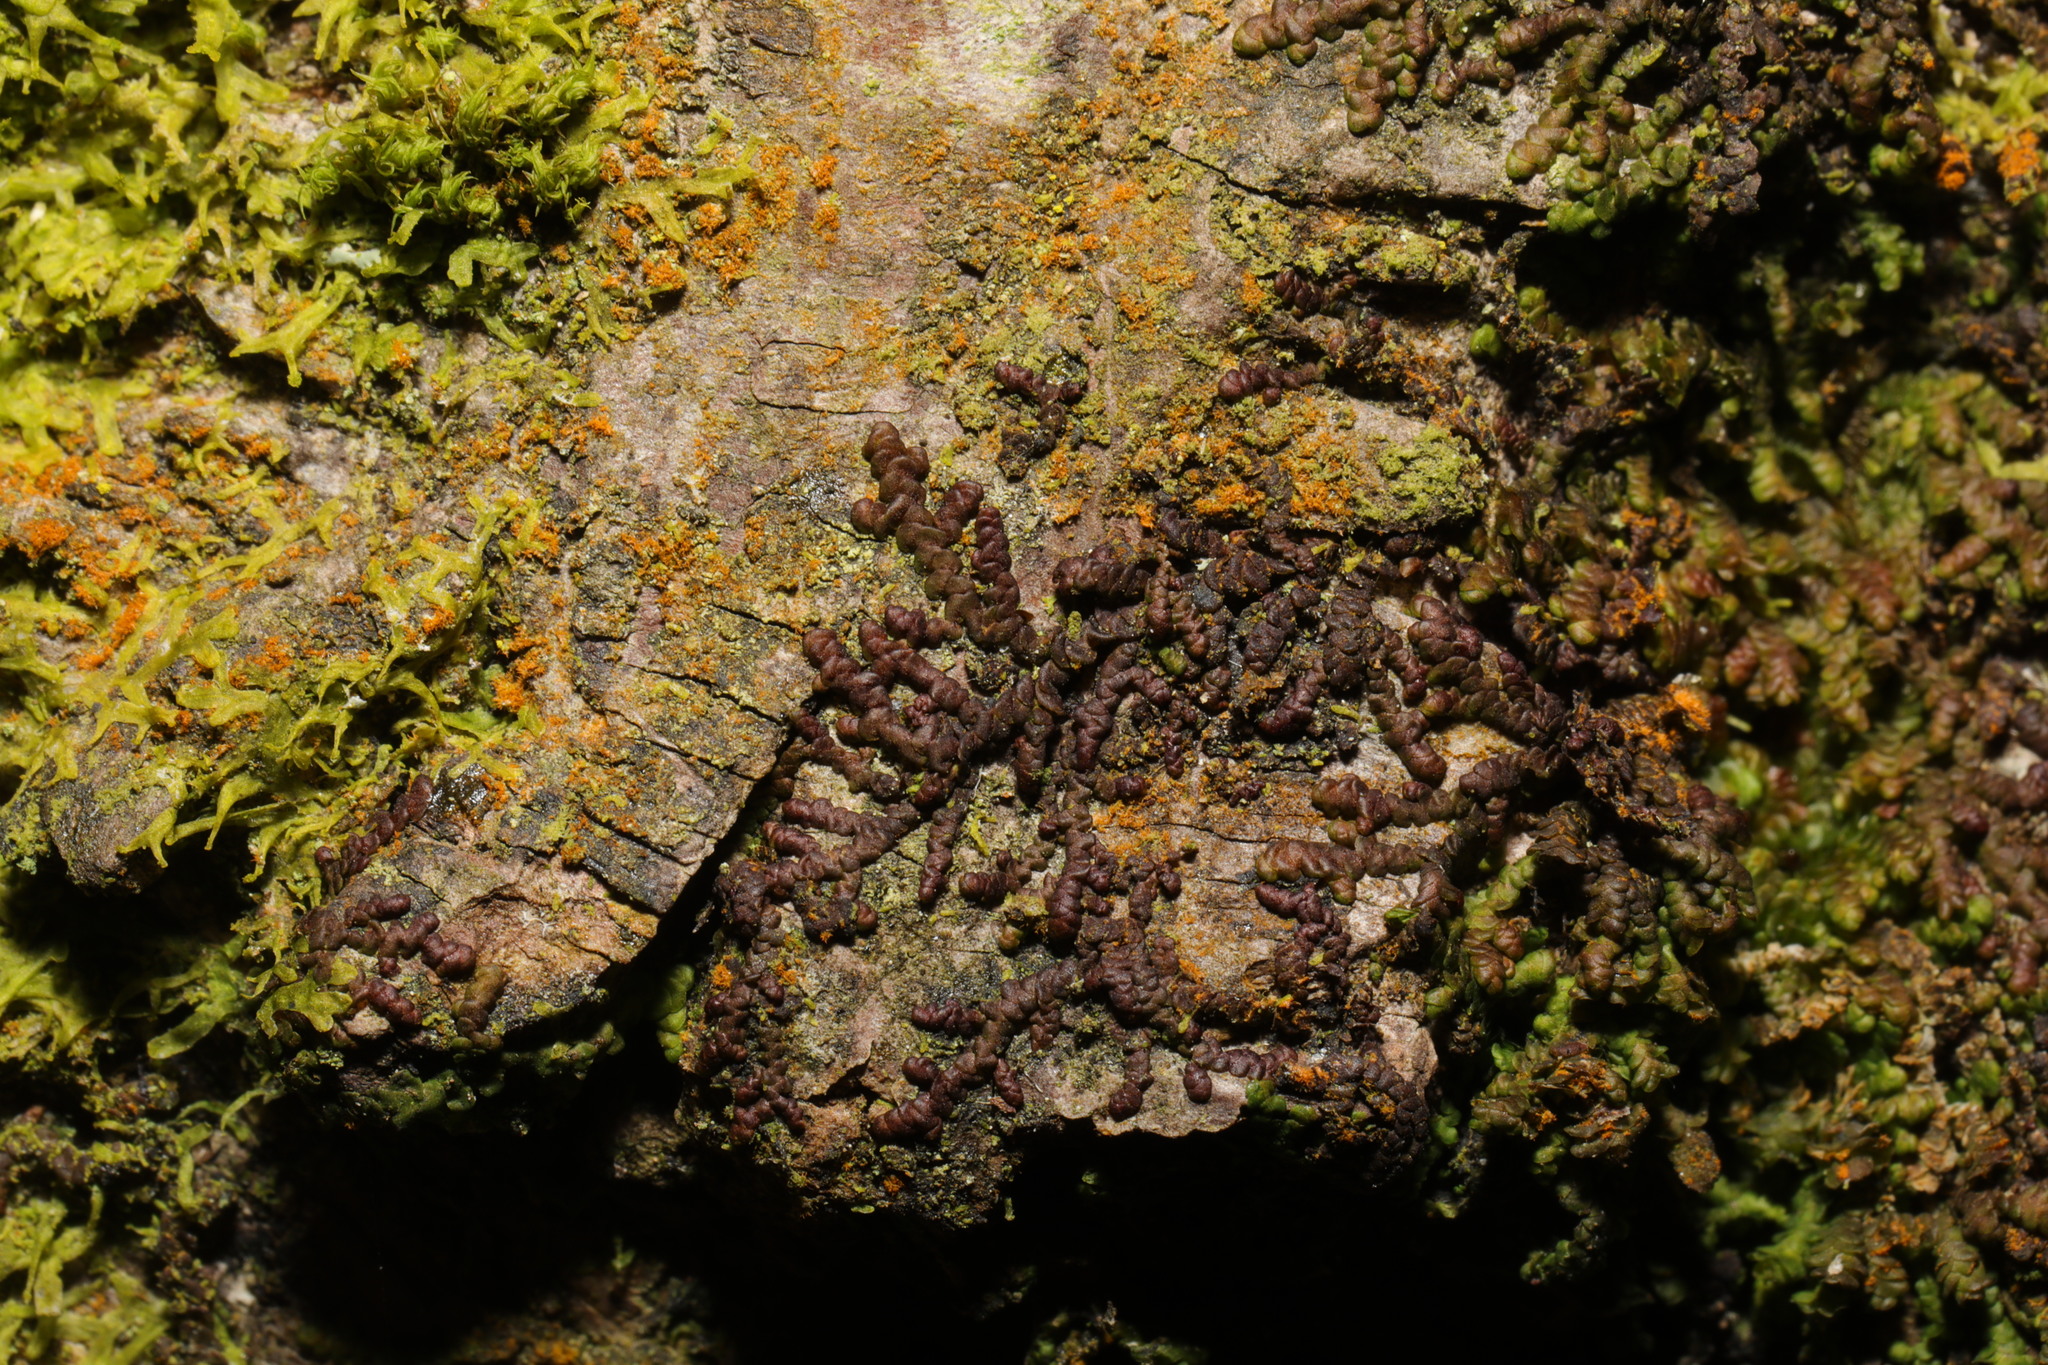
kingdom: Plantae
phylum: Marchantiophyta
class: Jungermanniopsida
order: Porellales
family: Frullaniaceae
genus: Frullania
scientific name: Frullania dilatata
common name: Dilated scalewort
